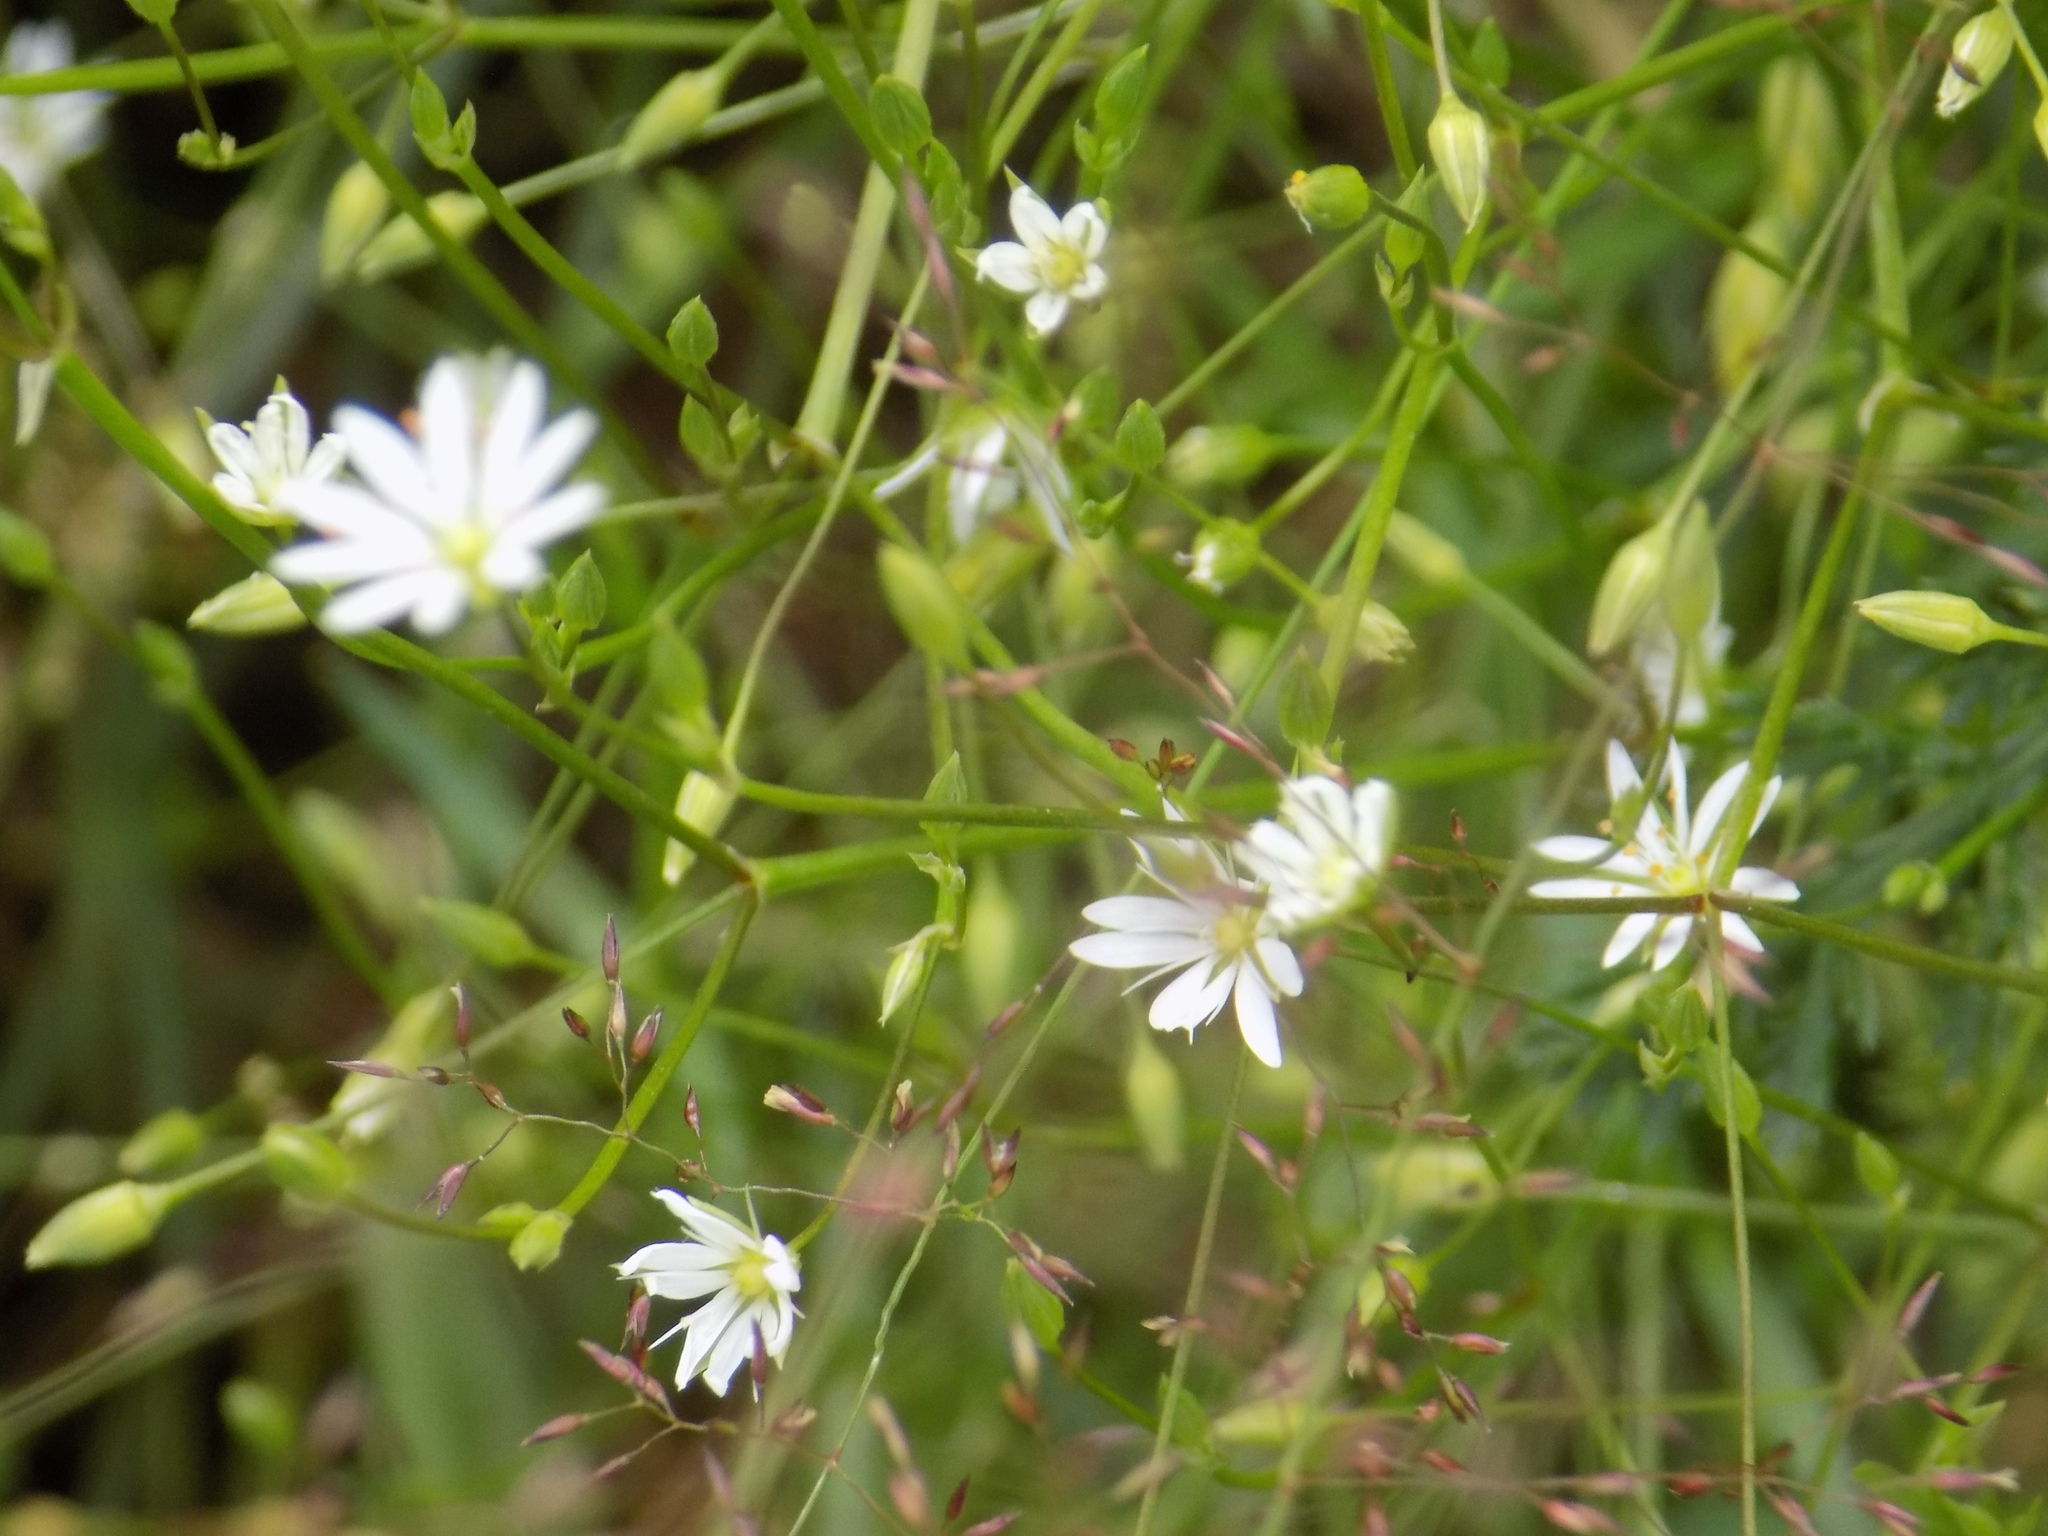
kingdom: Plantae
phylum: Tracheophyta
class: Magnoliopsida
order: Caryophyllales
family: Caryophyllaceae
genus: Stellaria
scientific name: Stellaria graminea
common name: Grass-like starwort
